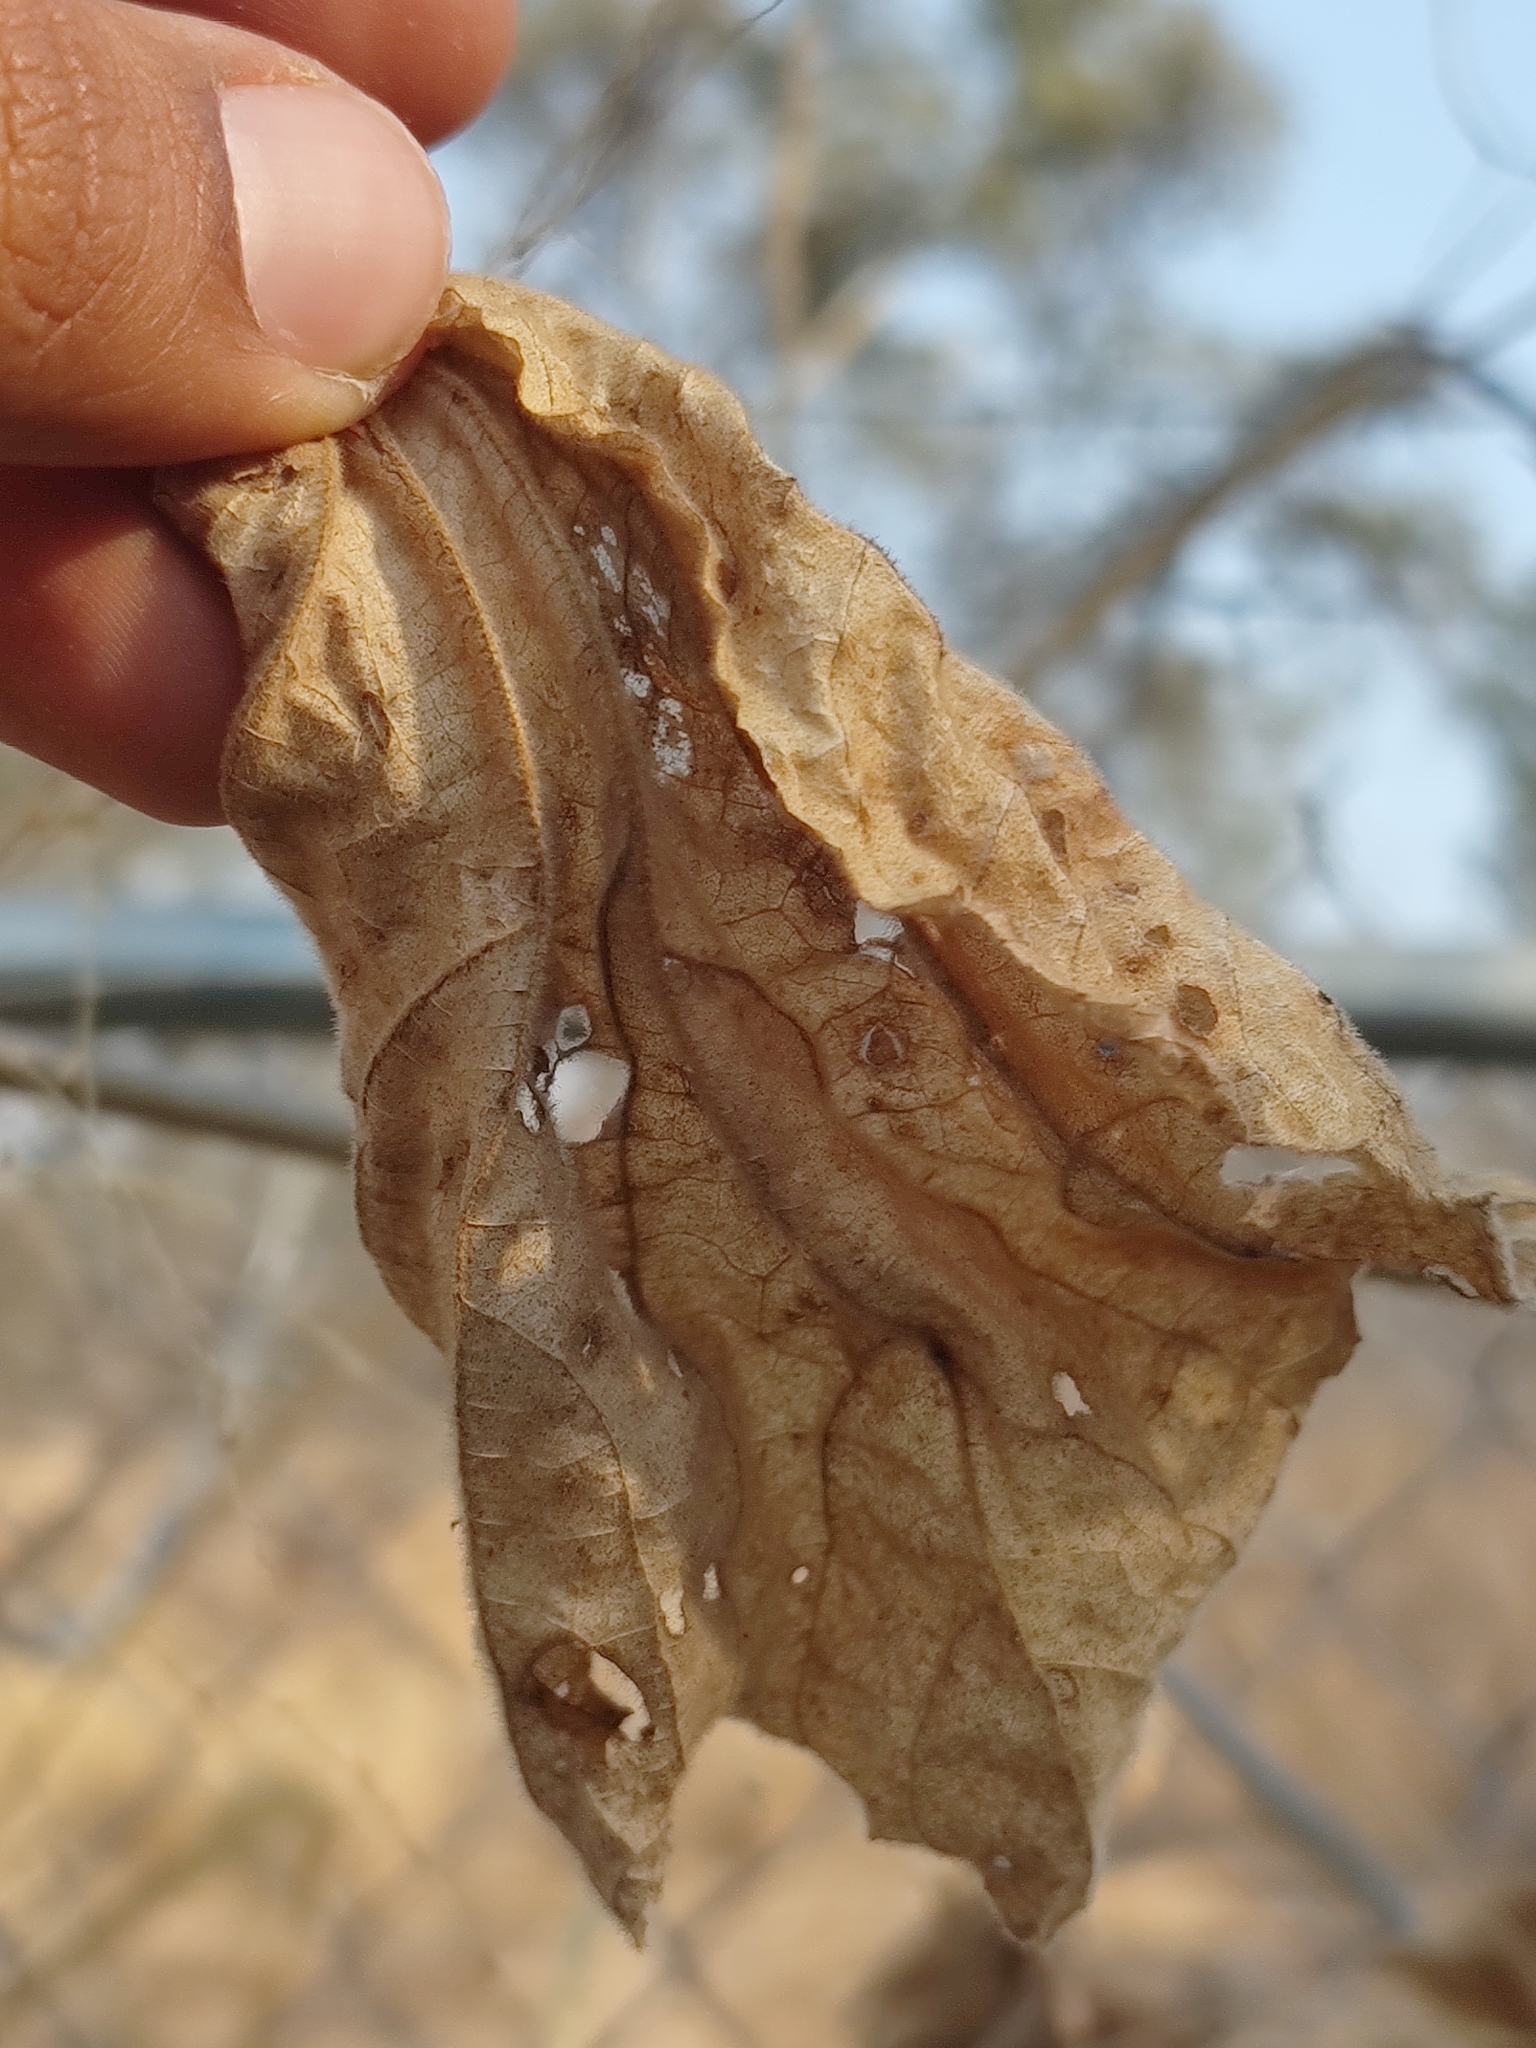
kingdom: Plantae
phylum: Tracheophyta
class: Magnoliopsida
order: Malvales
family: Malvaceae
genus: Heliocarpus
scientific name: Heliocarpus terebinthinaceus
